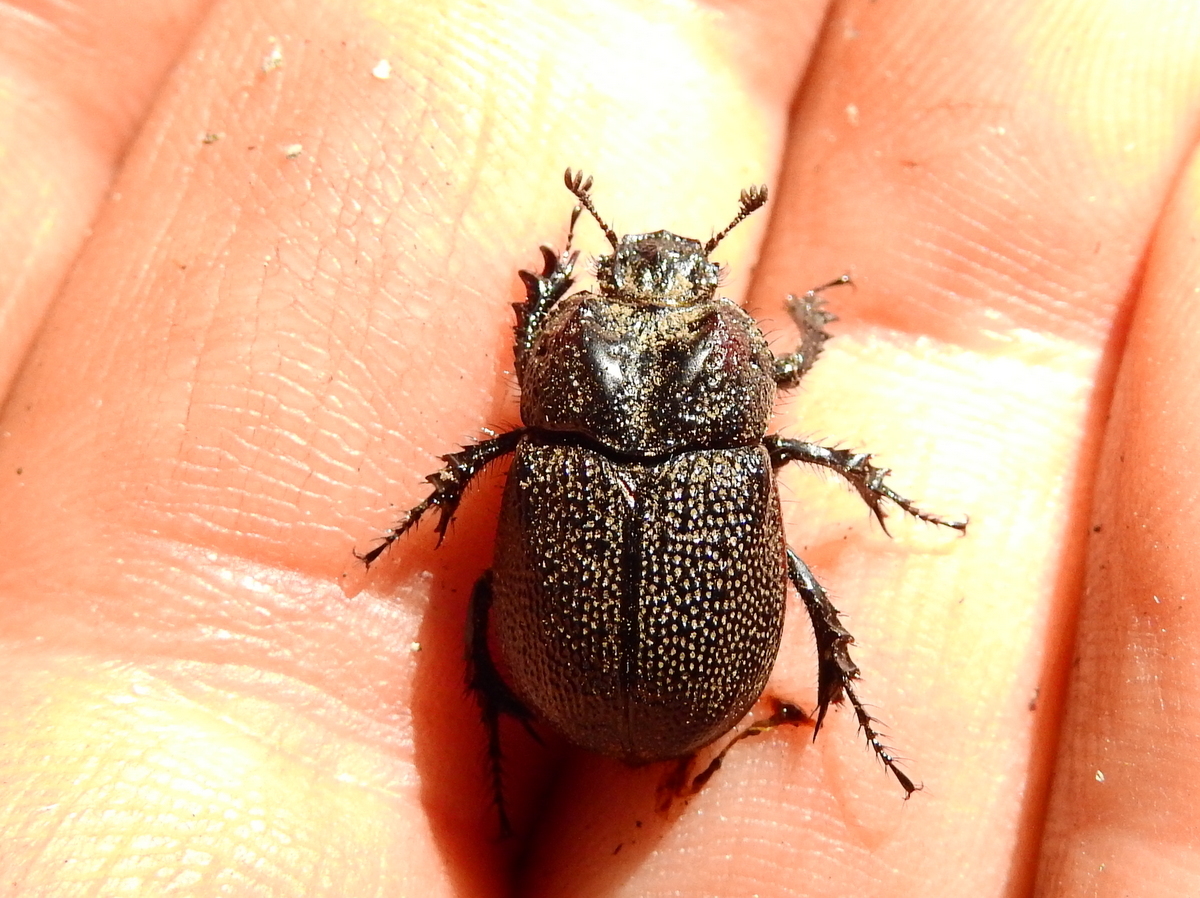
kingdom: Animalia
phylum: Arthropoda
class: Insecta
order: Coleoptera
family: Geotrupidae
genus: Frickius
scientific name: Frickius variolosus
